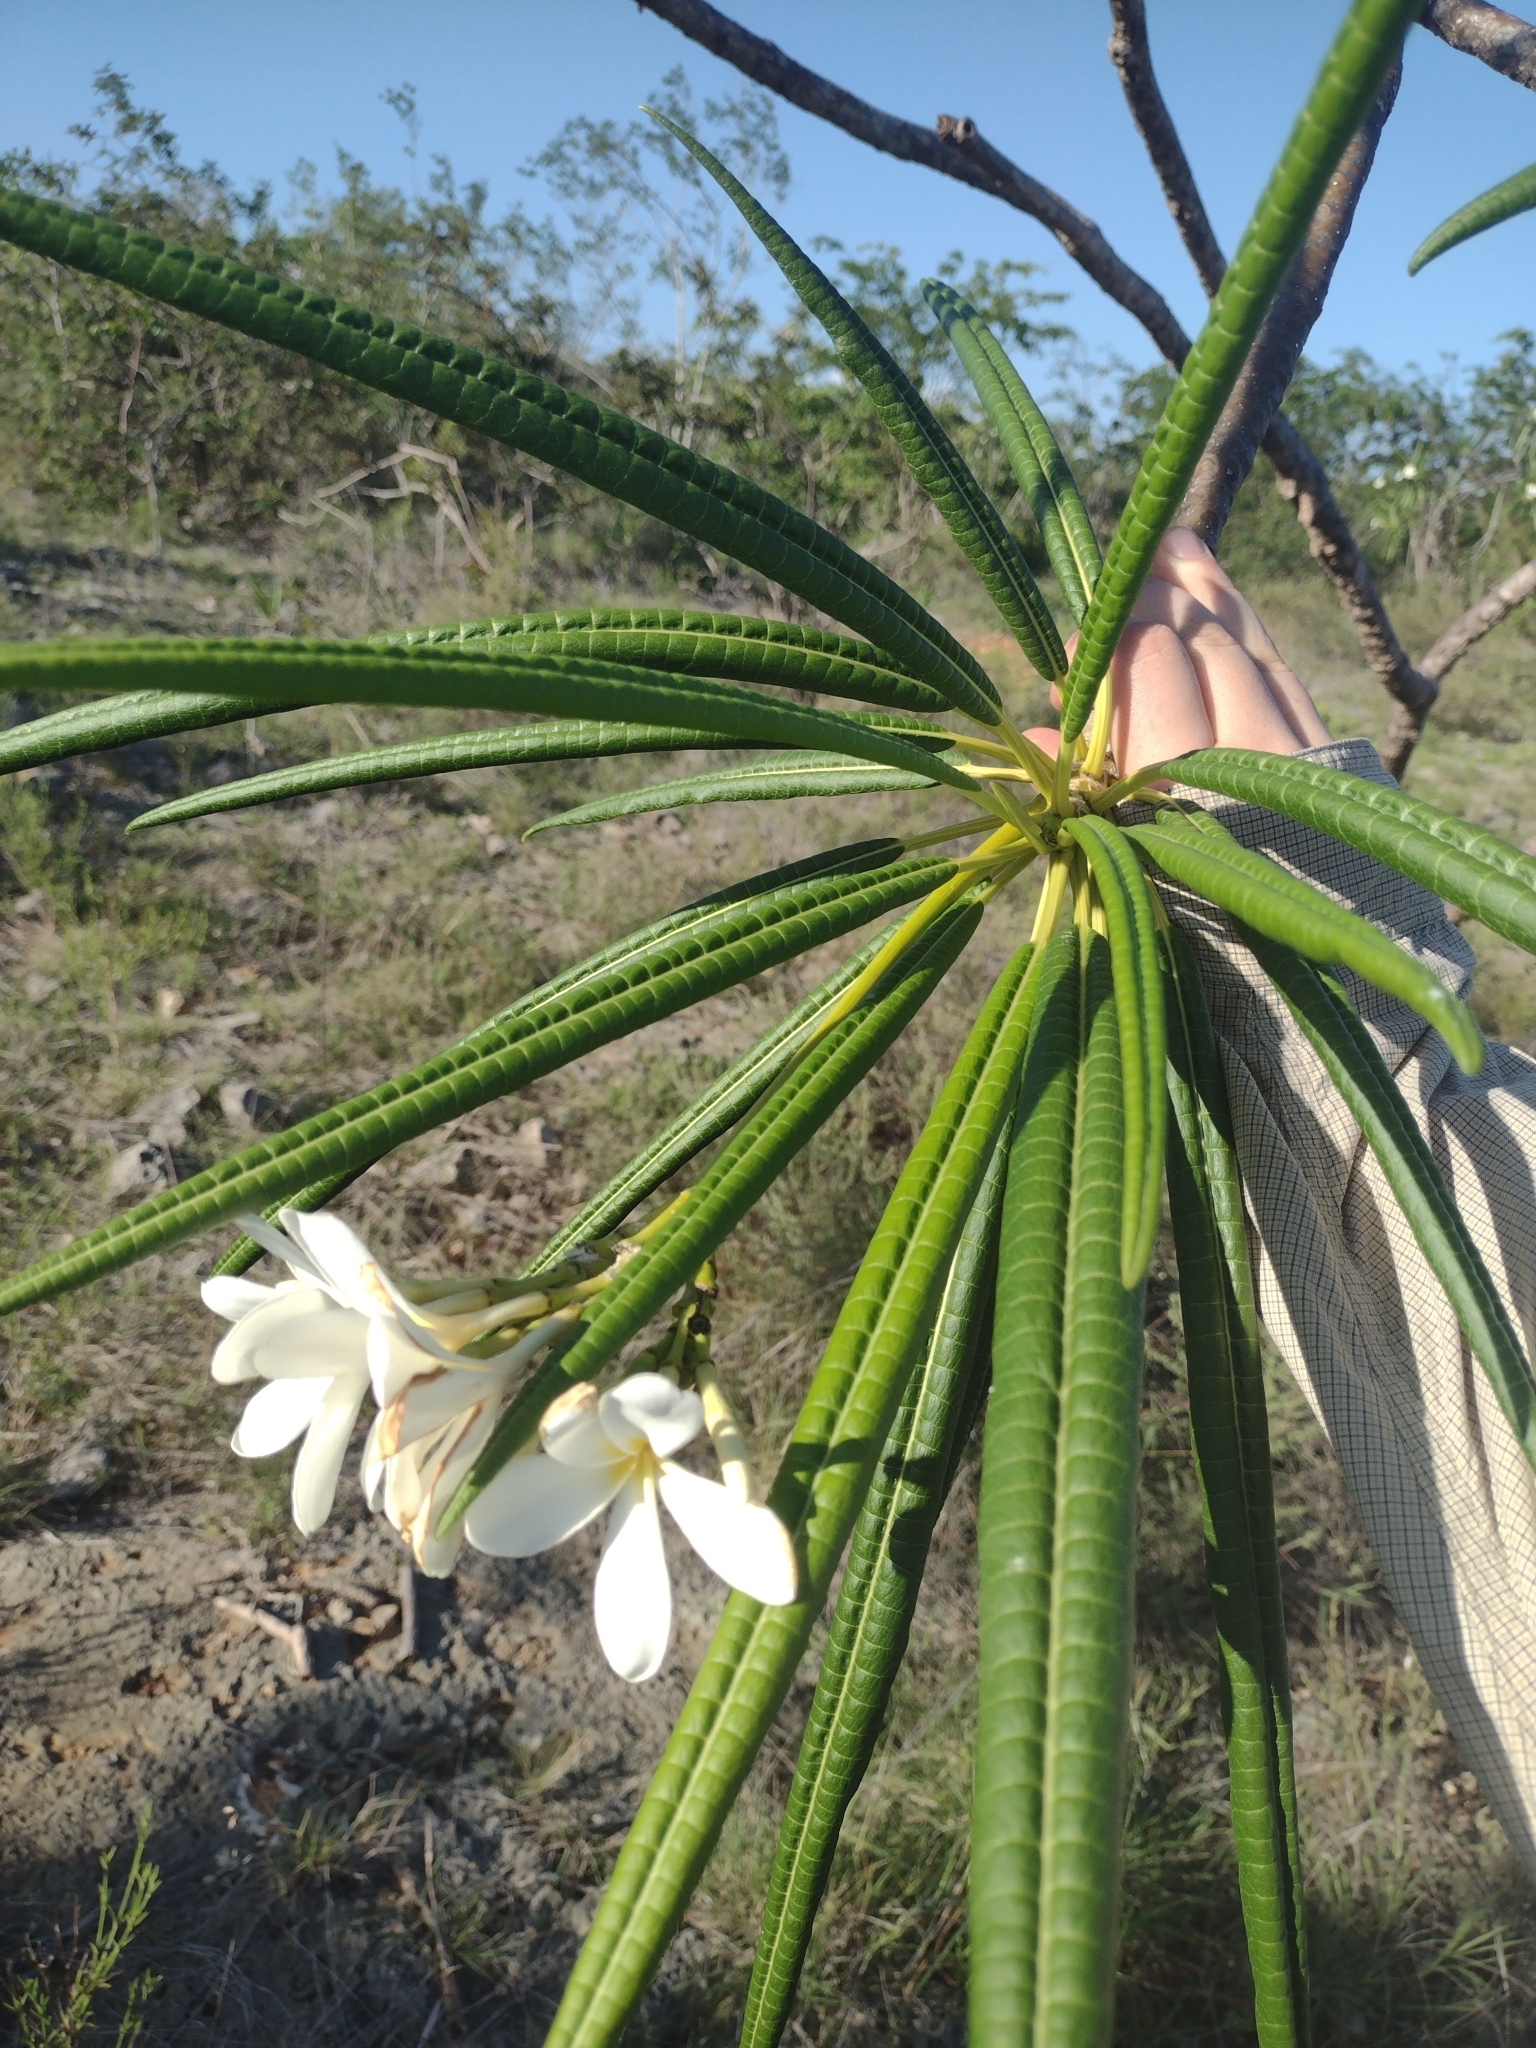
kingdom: Plantae
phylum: Tracheophyta
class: Magnoliopsida
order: Gentianales
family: Apocynaceae
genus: Plumeria
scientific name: Plumeria alba
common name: Wild frangipani
